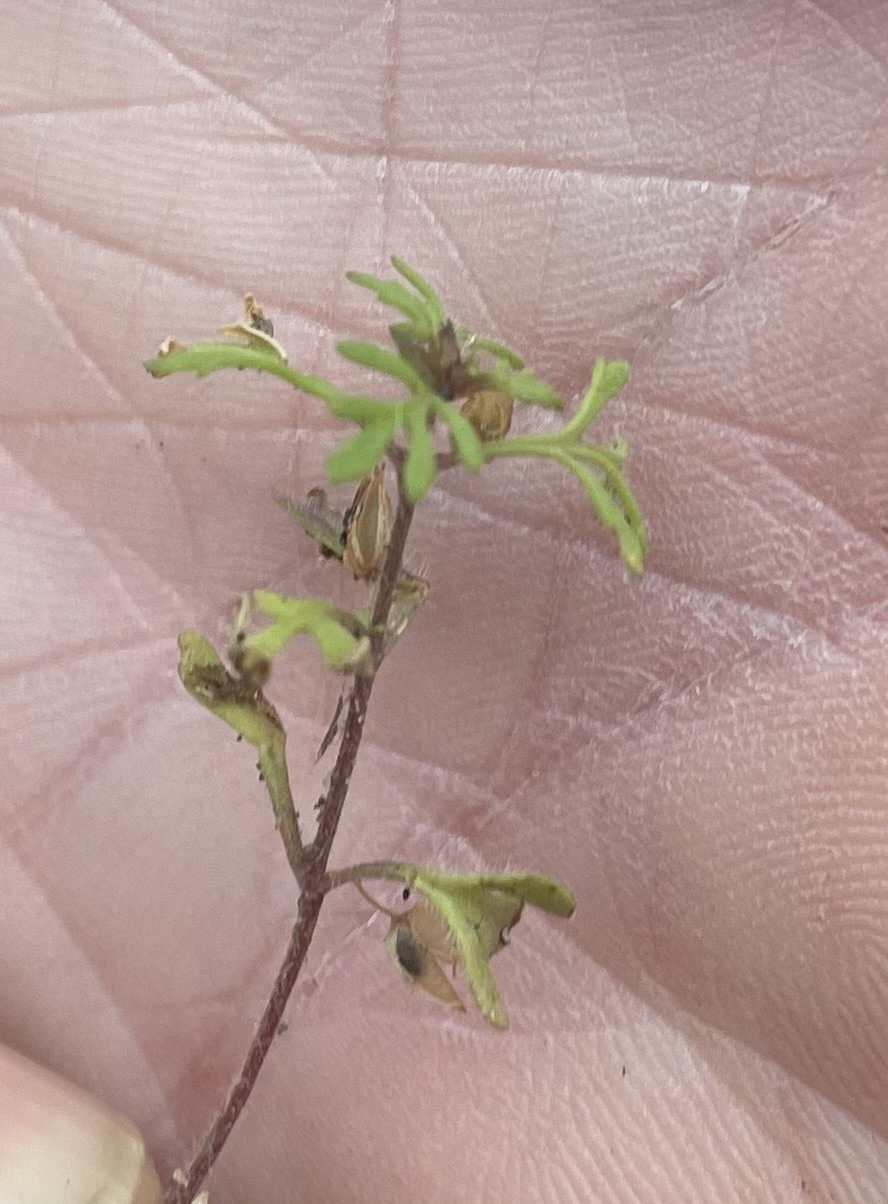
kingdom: Plantae
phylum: Tracheophyta
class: Magnoliopsida
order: Lamiales
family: Plantaginaceae
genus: Leucospora
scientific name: Leucospora multifida
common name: Narrow-leaf paleseed
